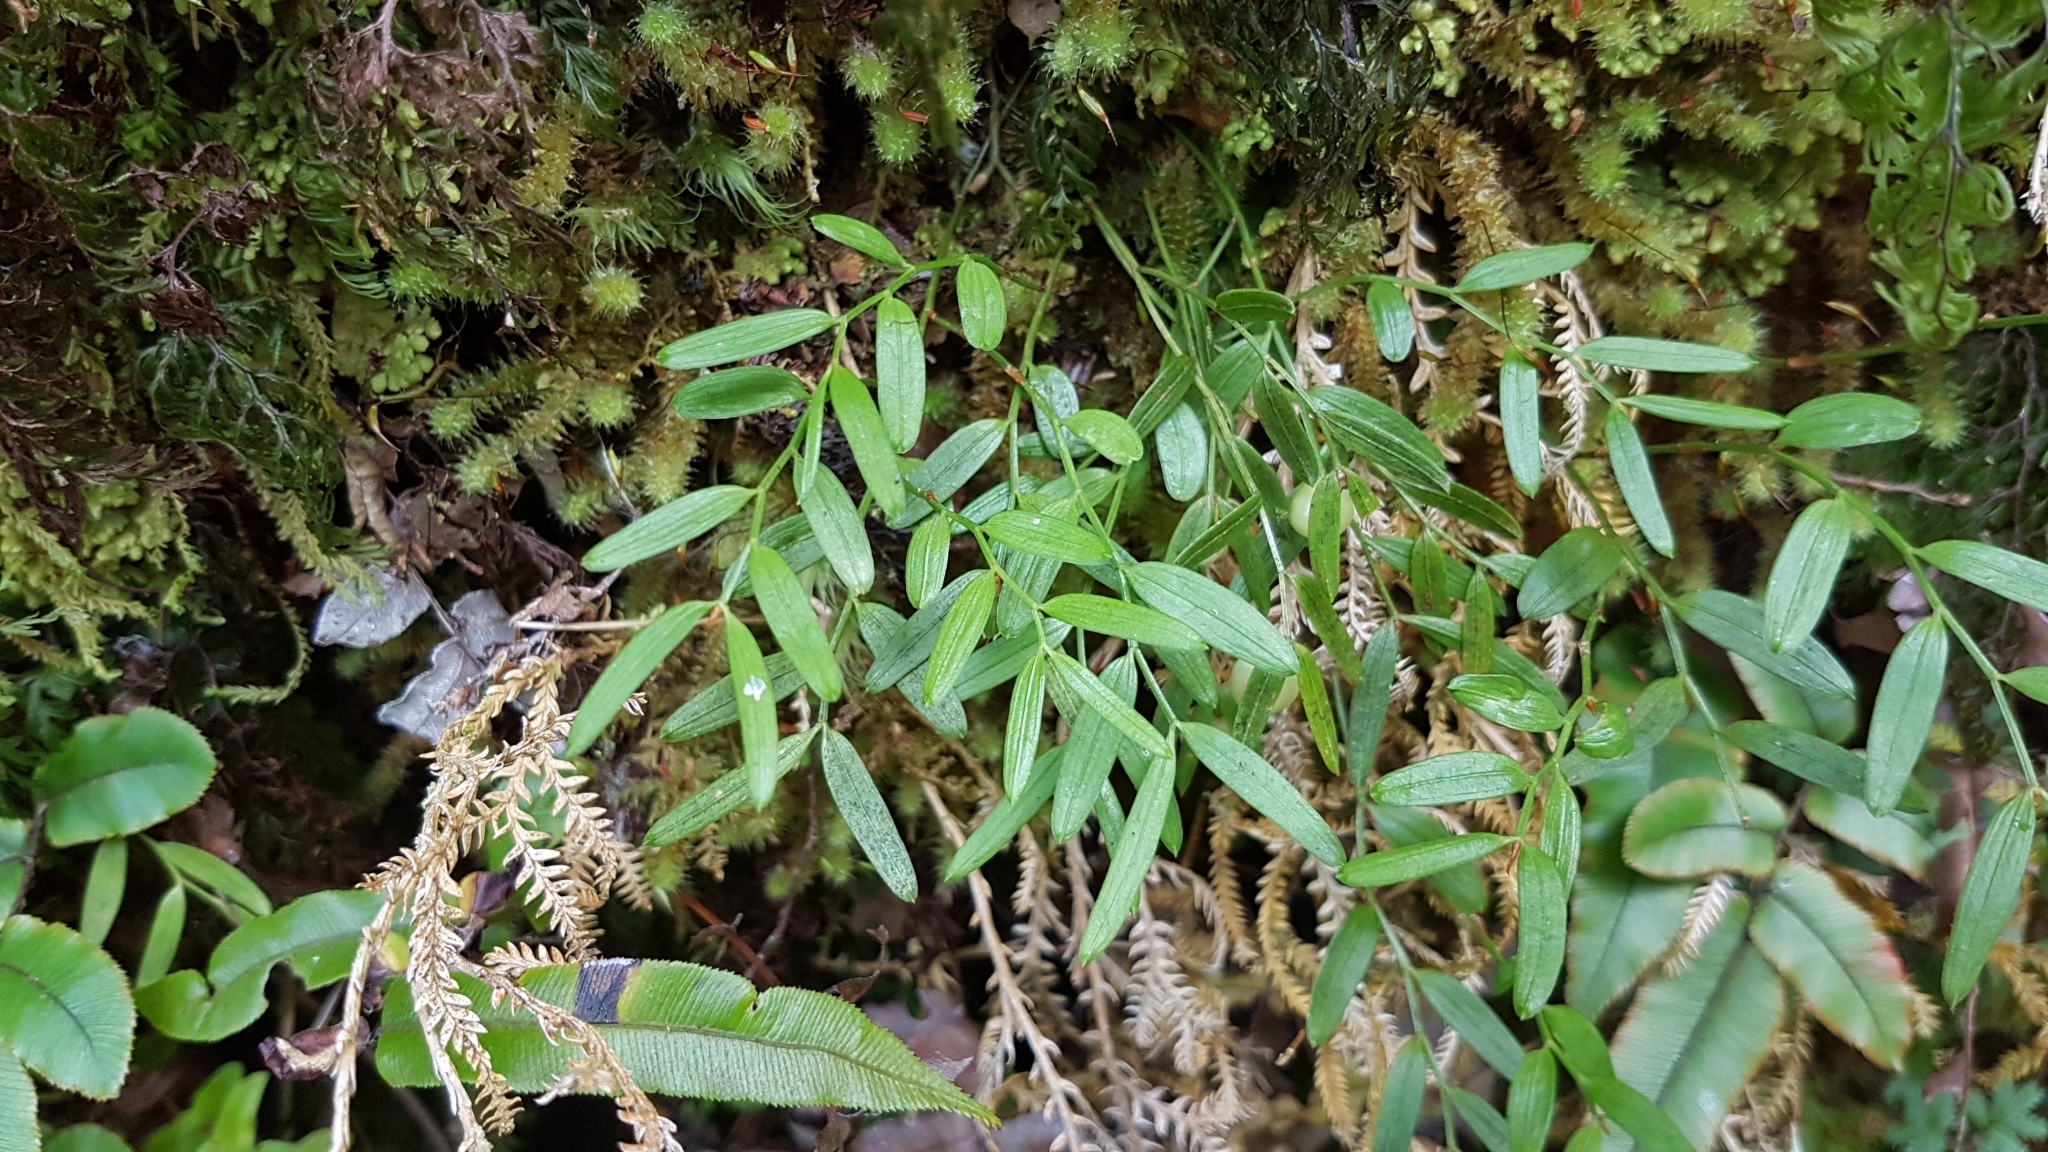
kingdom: Plantae
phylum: Tracheophyta
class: Liliopsida
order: Liliales
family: Alstroemeriaceae
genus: Luzuriaga
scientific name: Luzuriaga parviflora
